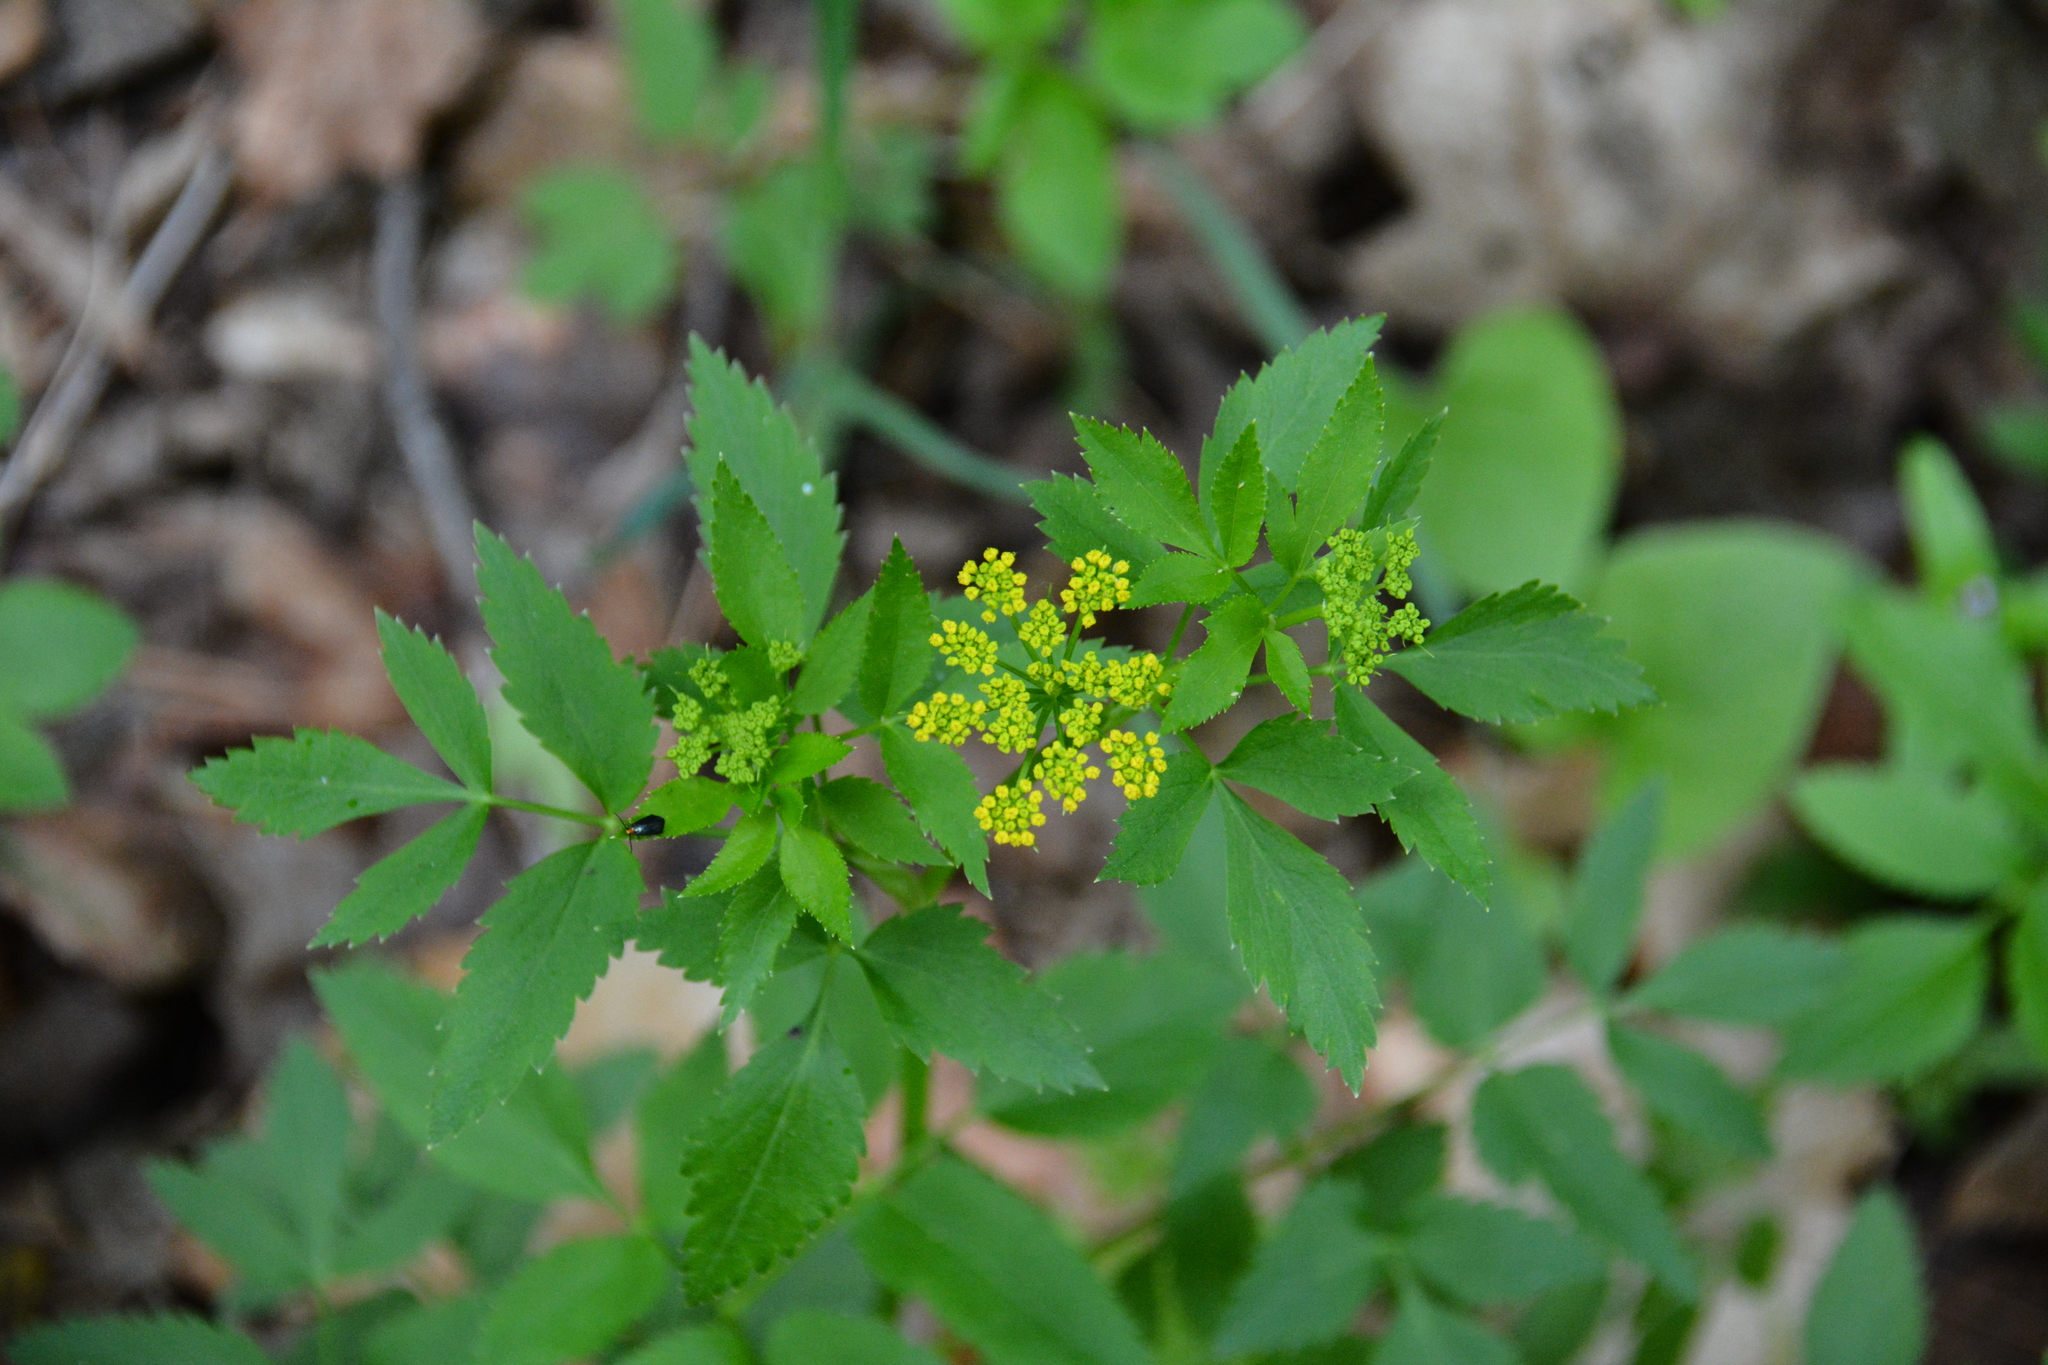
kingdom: Plantae
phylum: Tracheophyta
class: Magnoliopsida
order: Apiales
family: Apiaceae
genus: Zizia
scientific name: Zizia aurea
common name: Golden alexanders
